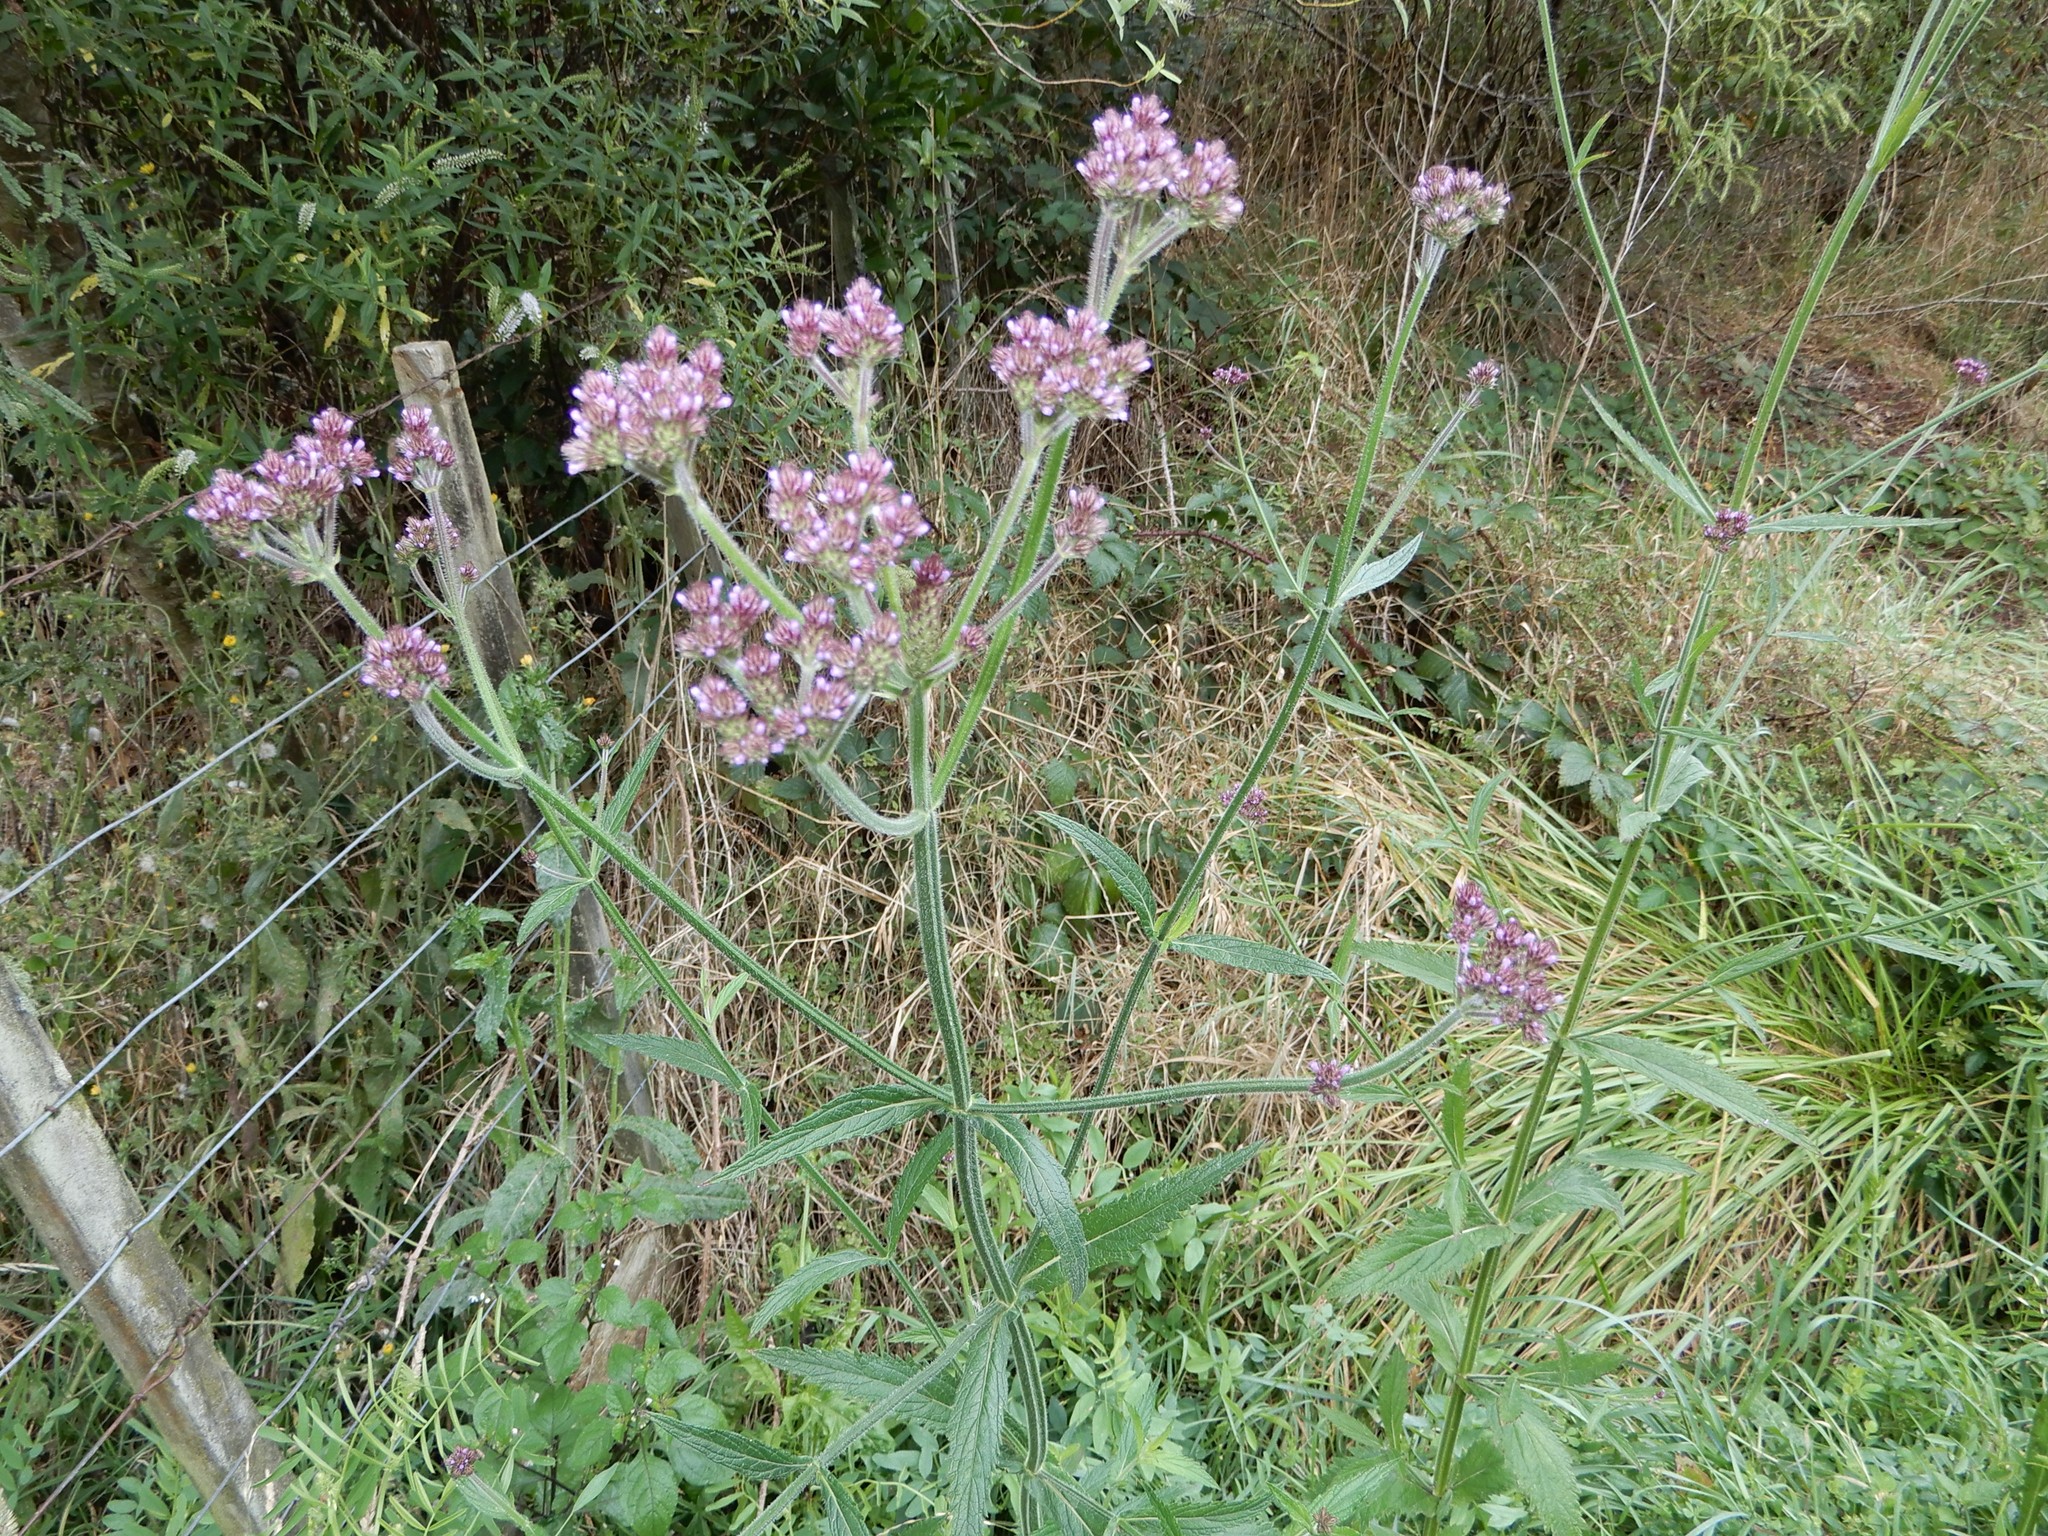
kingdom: Plantae
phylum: Tracheophyta
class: Magnoliopsida
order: Lamiales
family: Verbenaceae
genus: Verbena
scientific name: Verbena incompta
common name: Purpletop vervain
